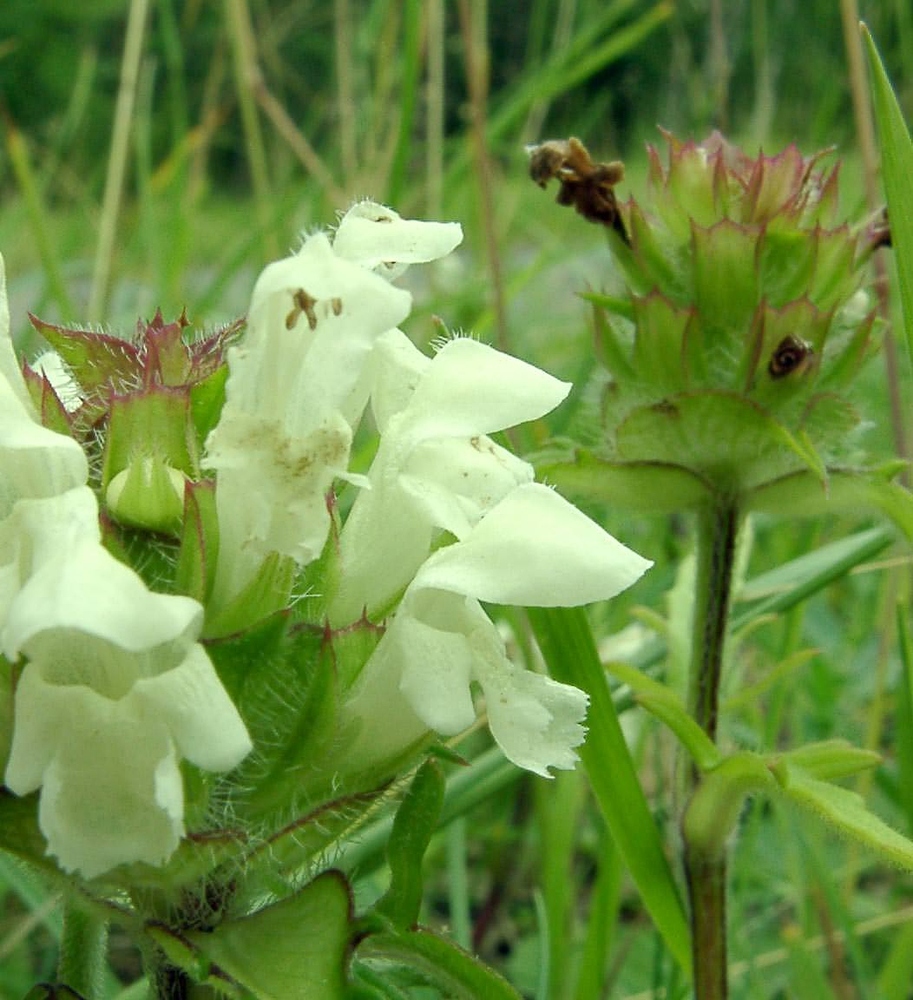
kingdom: Plantae
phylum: Tracheophyta
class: Magnoliopsida
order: Lamiales
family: Lamiaceae
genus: Prunella
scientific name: Prunella laciniata
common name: Cut-leaved selfheal
